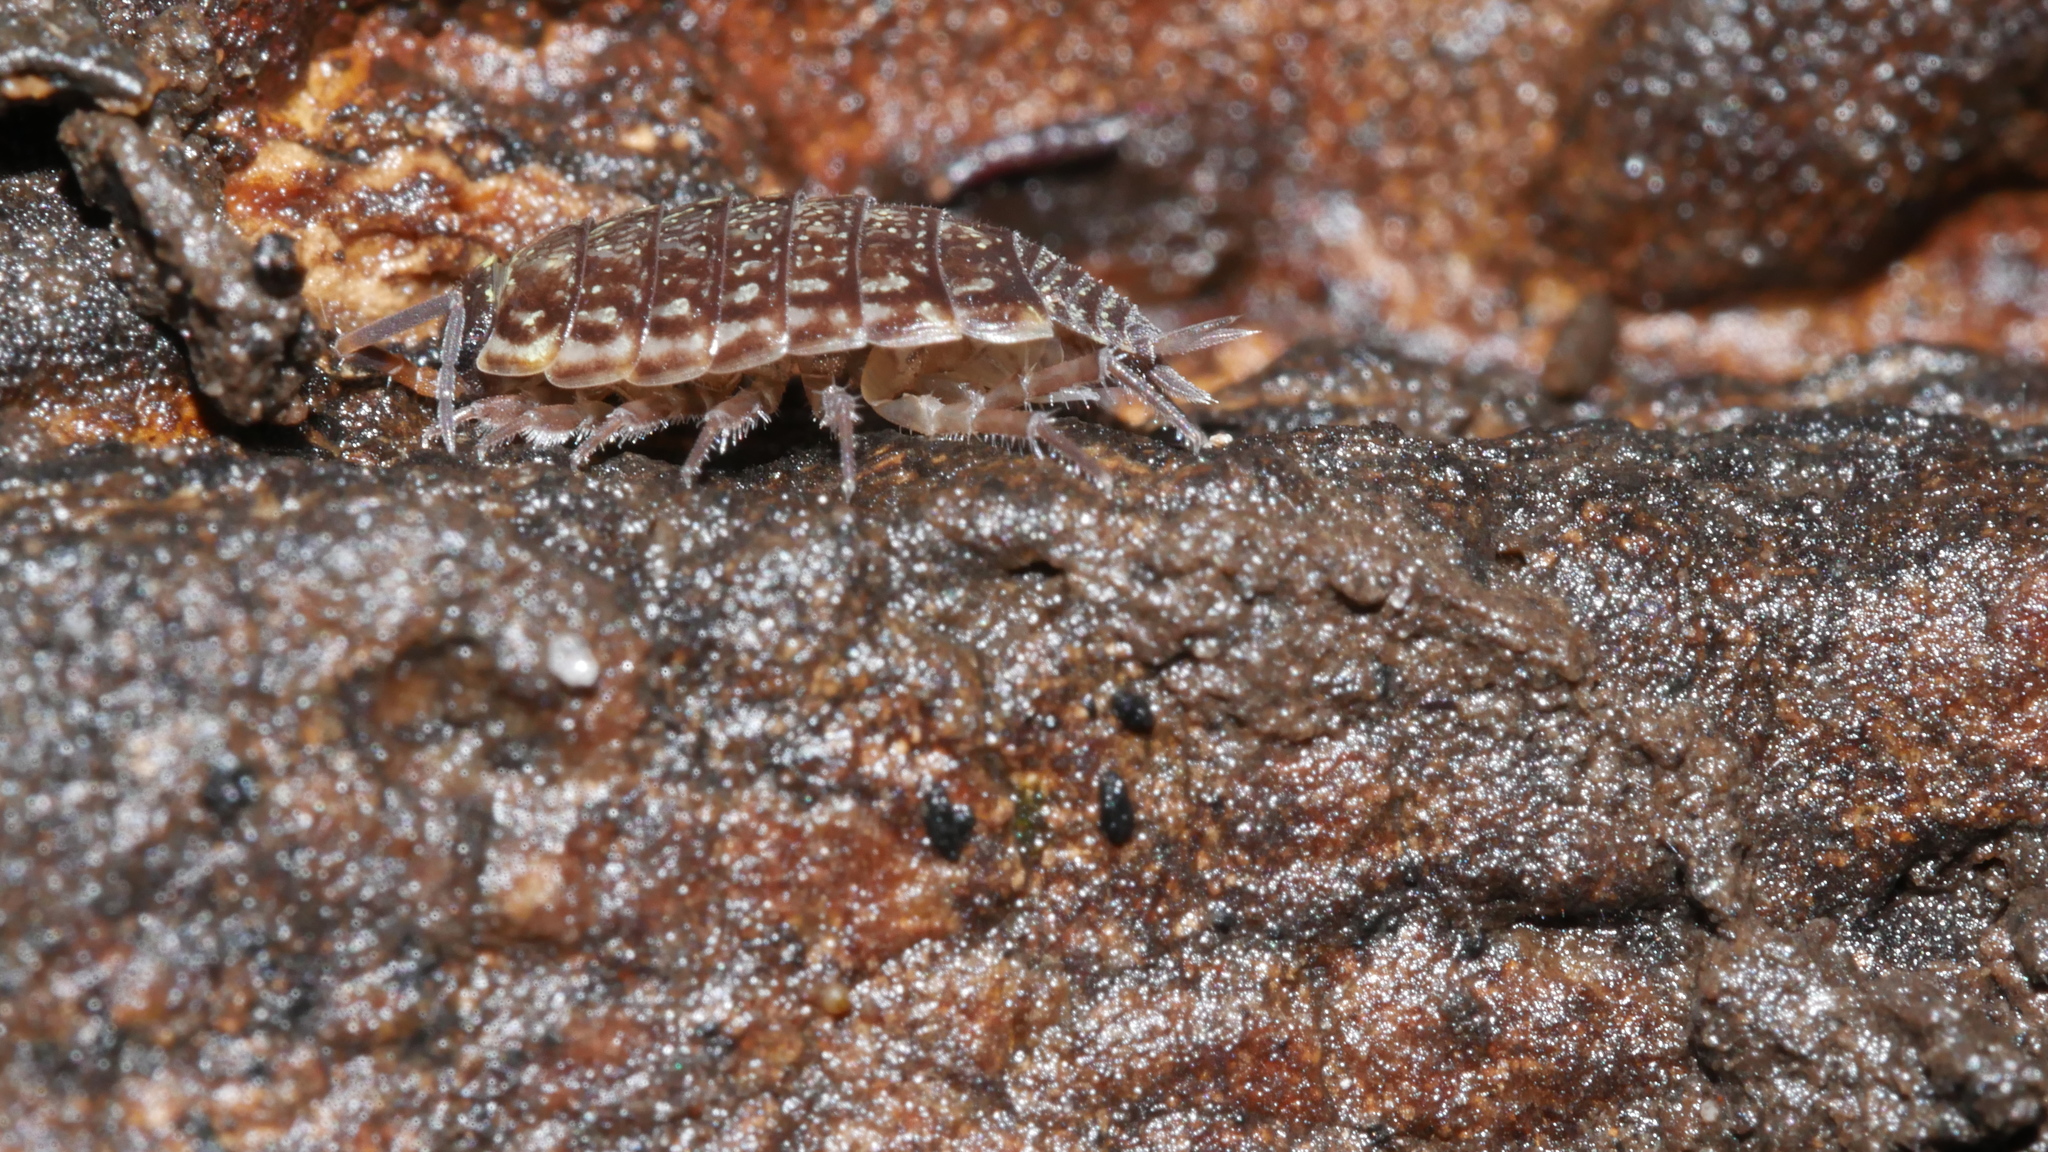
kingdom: Animalia
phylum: Arthropoda
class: Malacostraca
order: Isopoda
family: Philosciidae
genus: Philoscia
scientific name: Philoscia muscorum
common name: Common striped woodlouse
